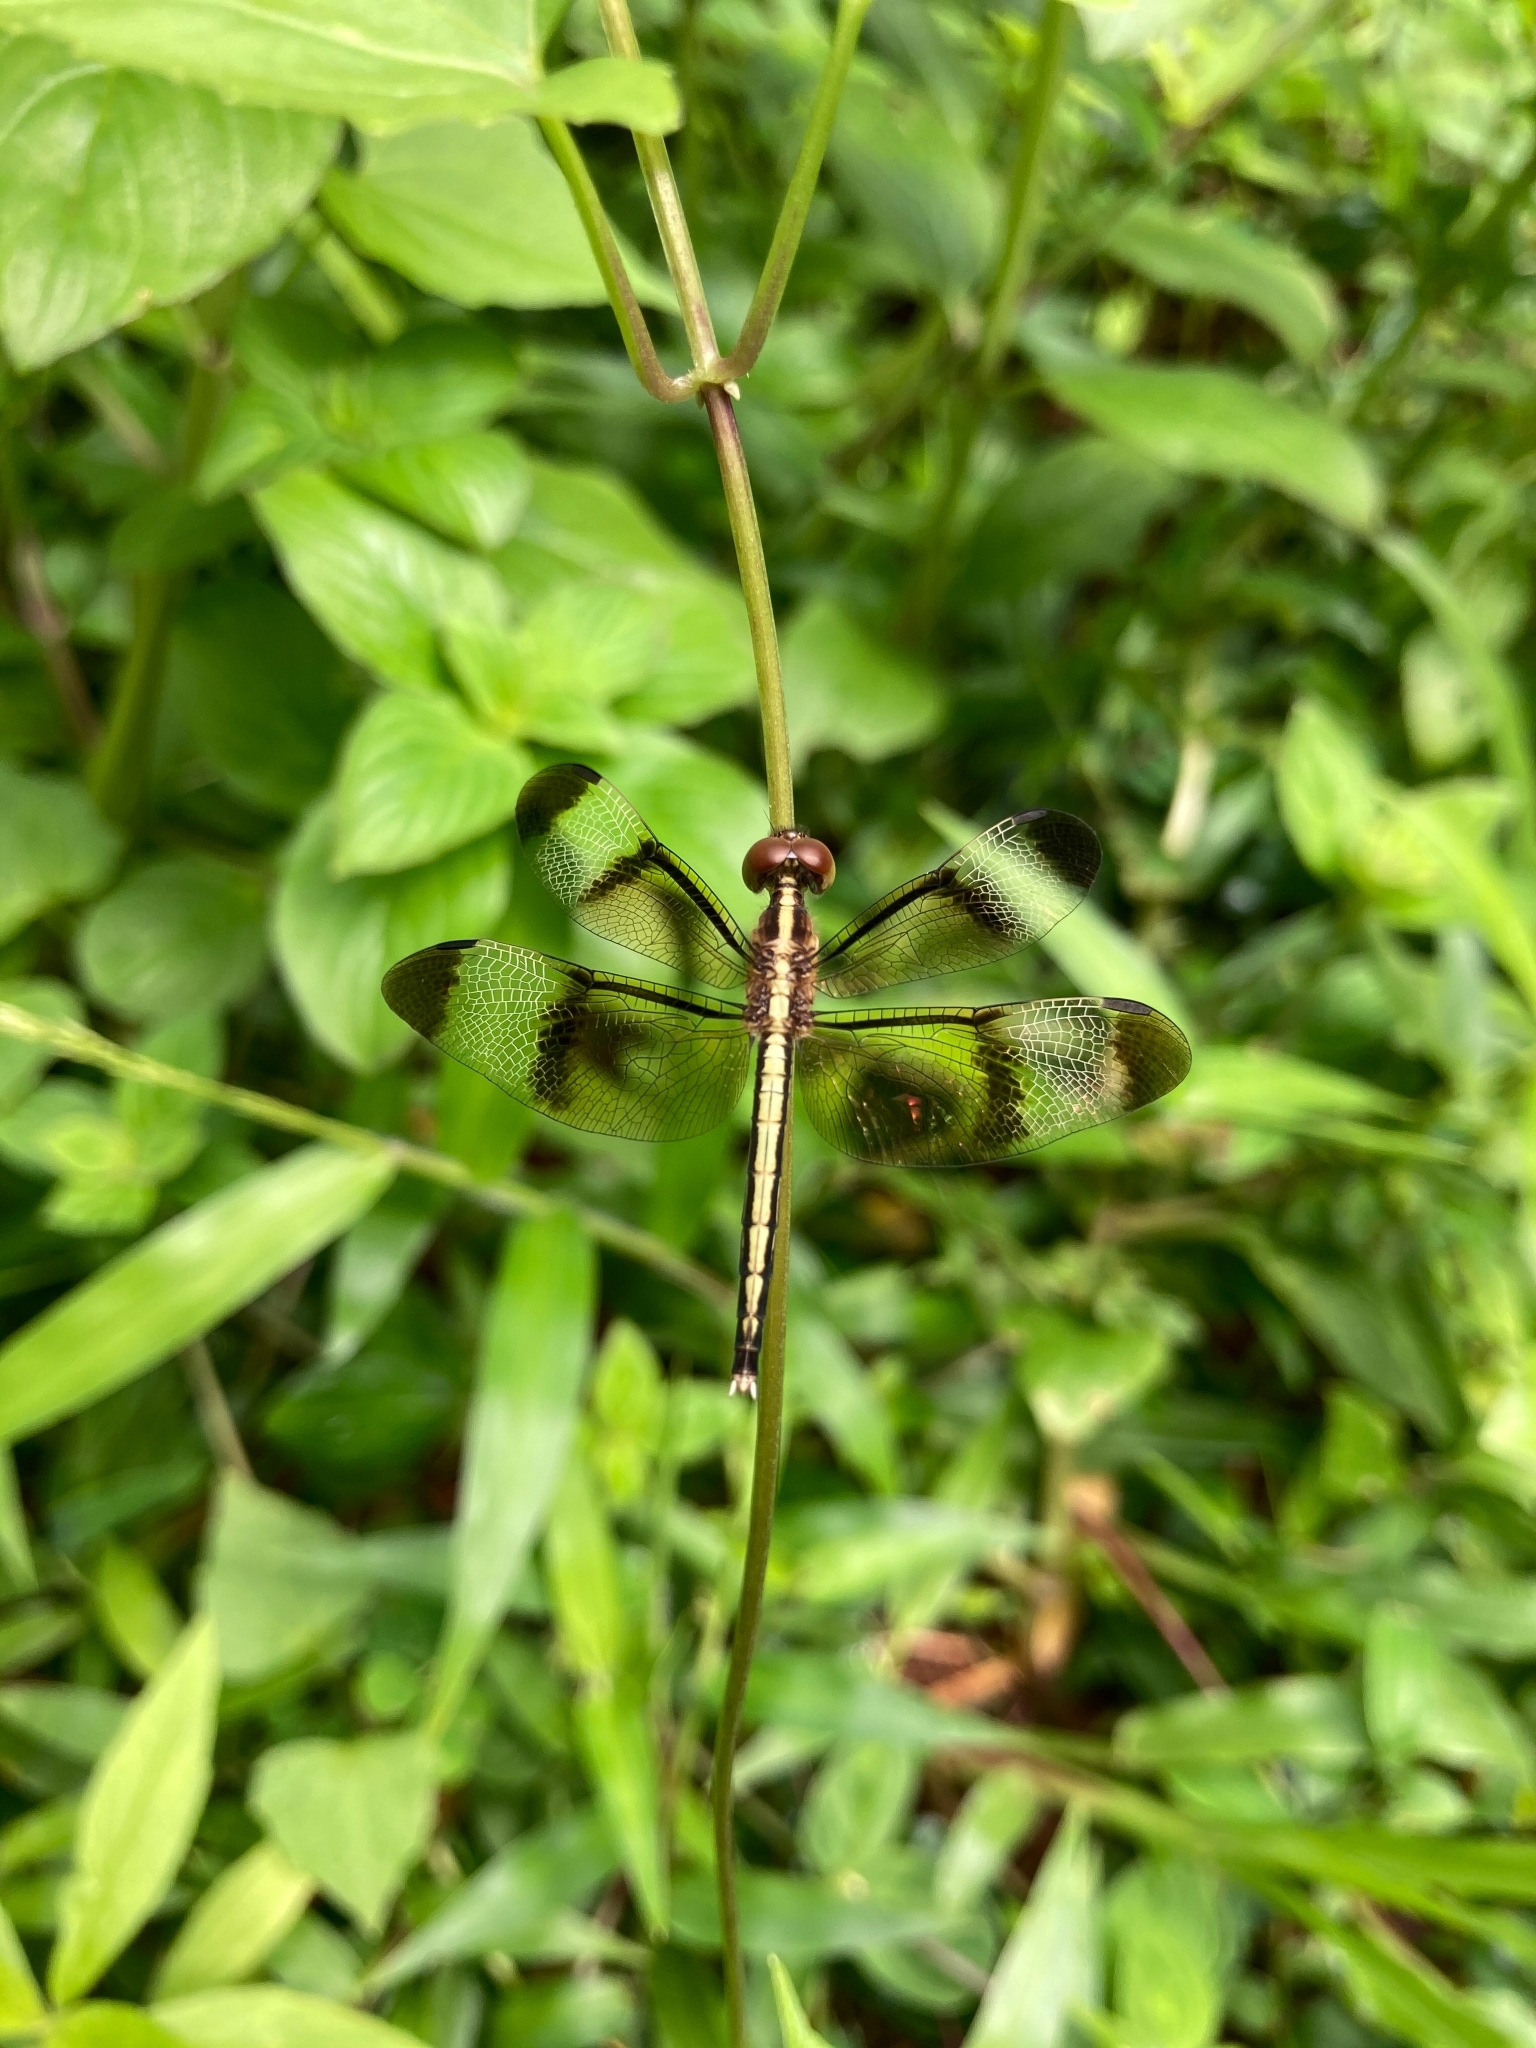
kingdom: Animalia
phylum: Arthropoda
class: Insecta
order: Odonata
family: Libellulidae
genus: Neurothemis
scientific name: Neurothemis tullia
